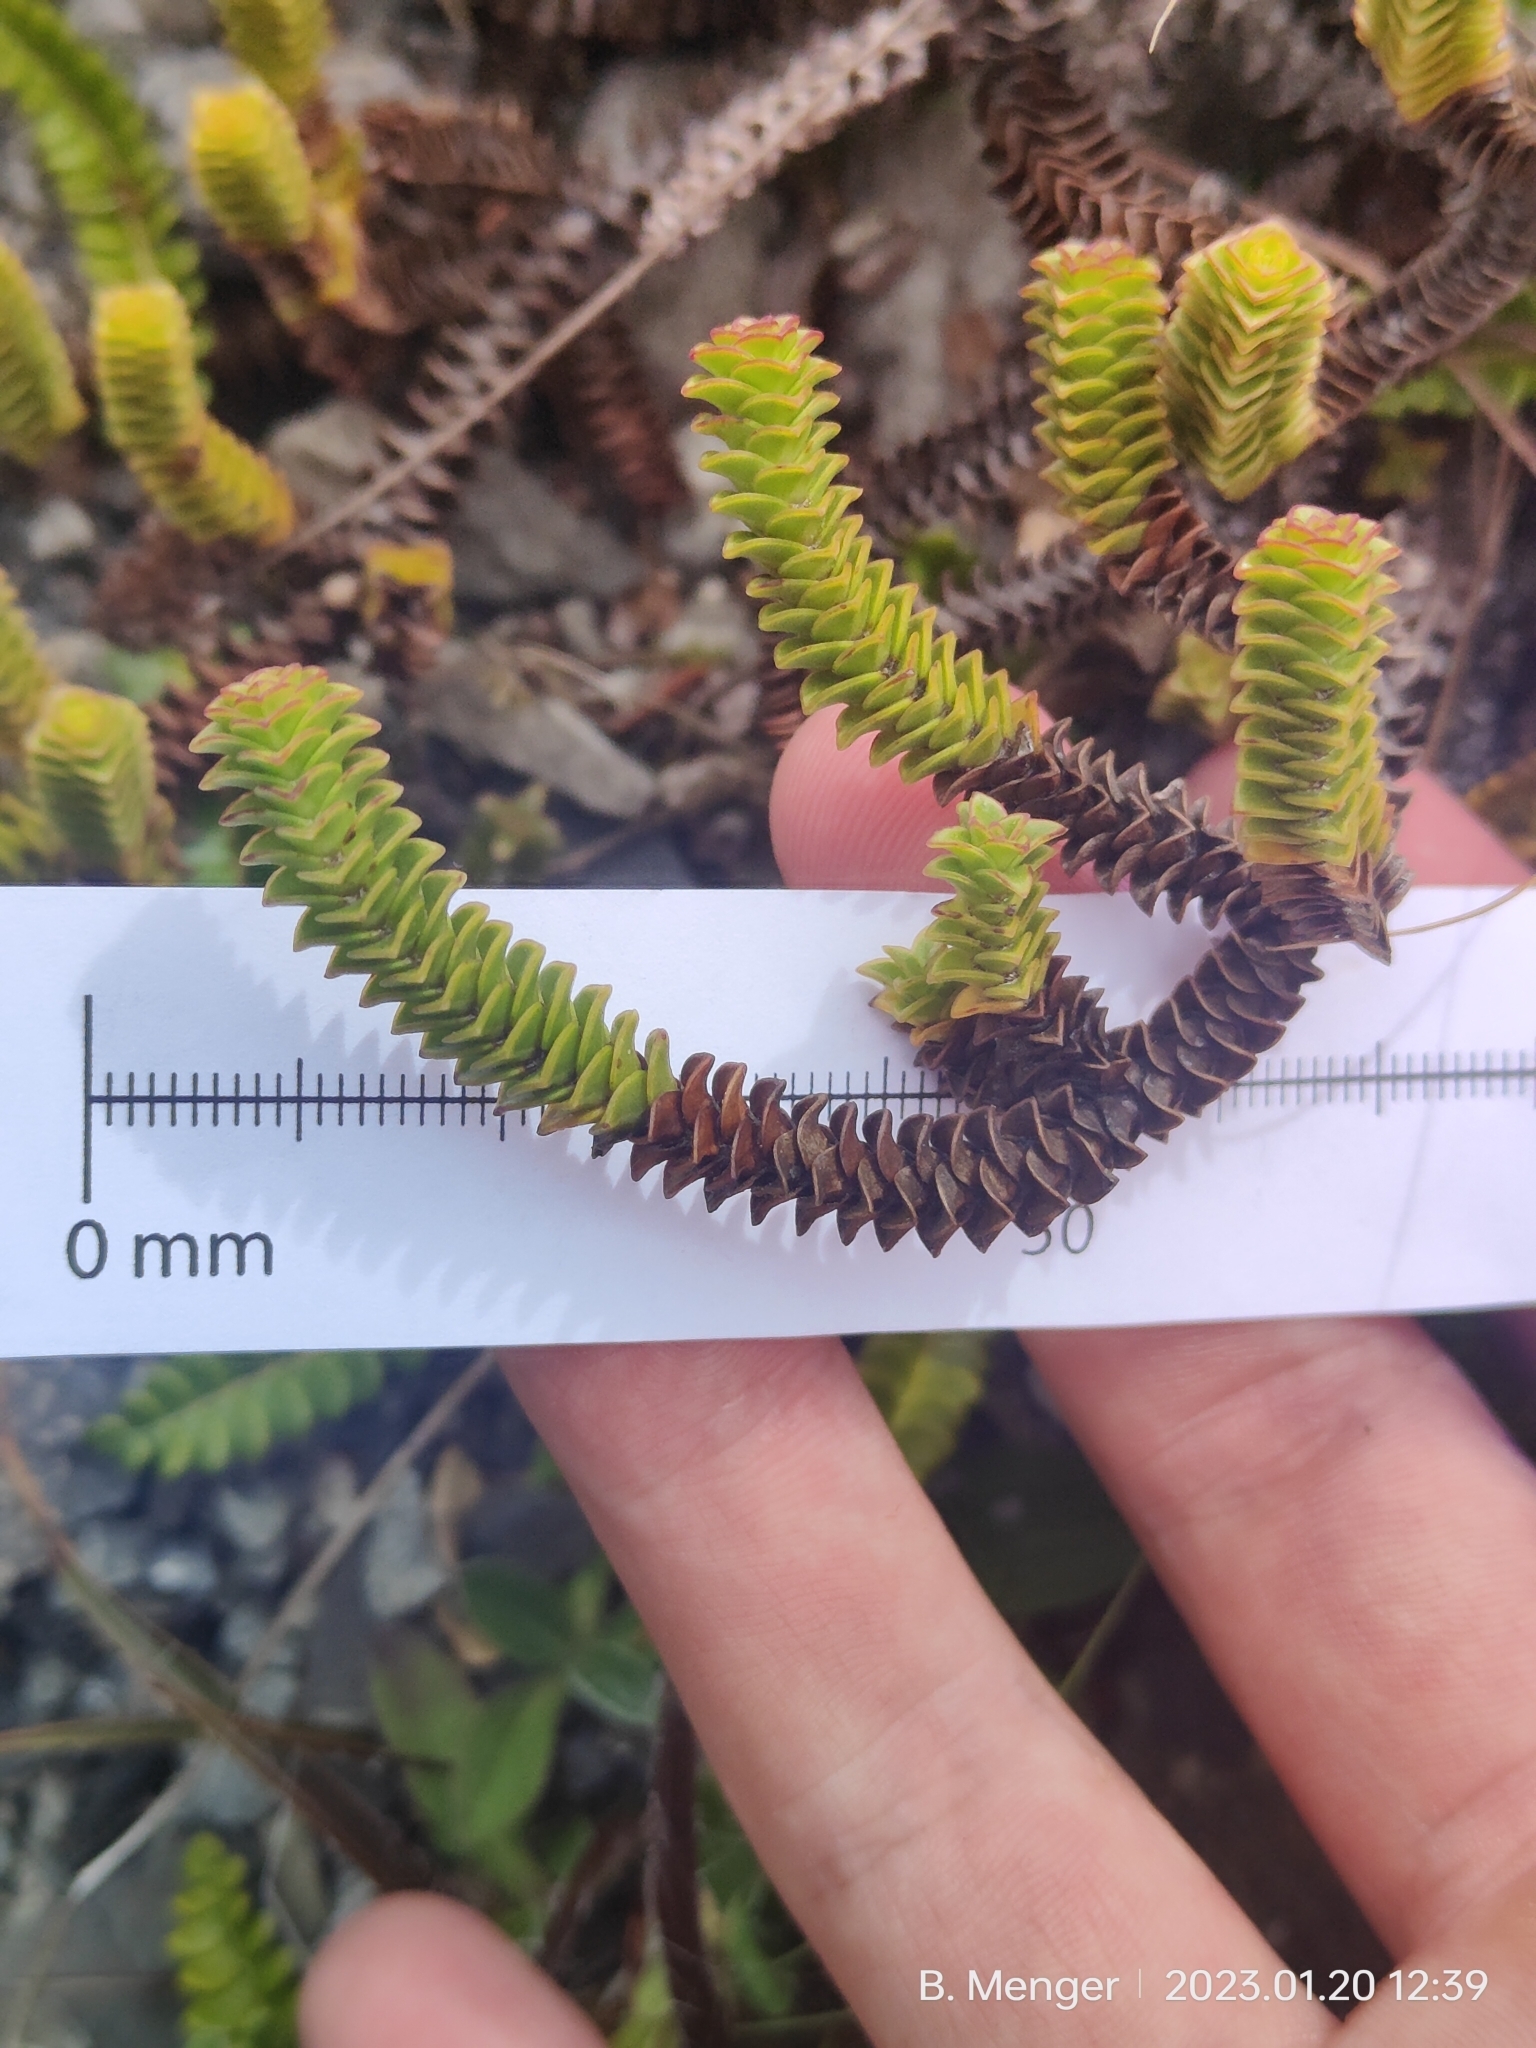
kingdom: Plantae
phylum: Tracheophyta
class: Magnoliopsida
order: Lamiales
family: Plantaginaceae
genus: Veronica
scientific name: Veronica epacridea
